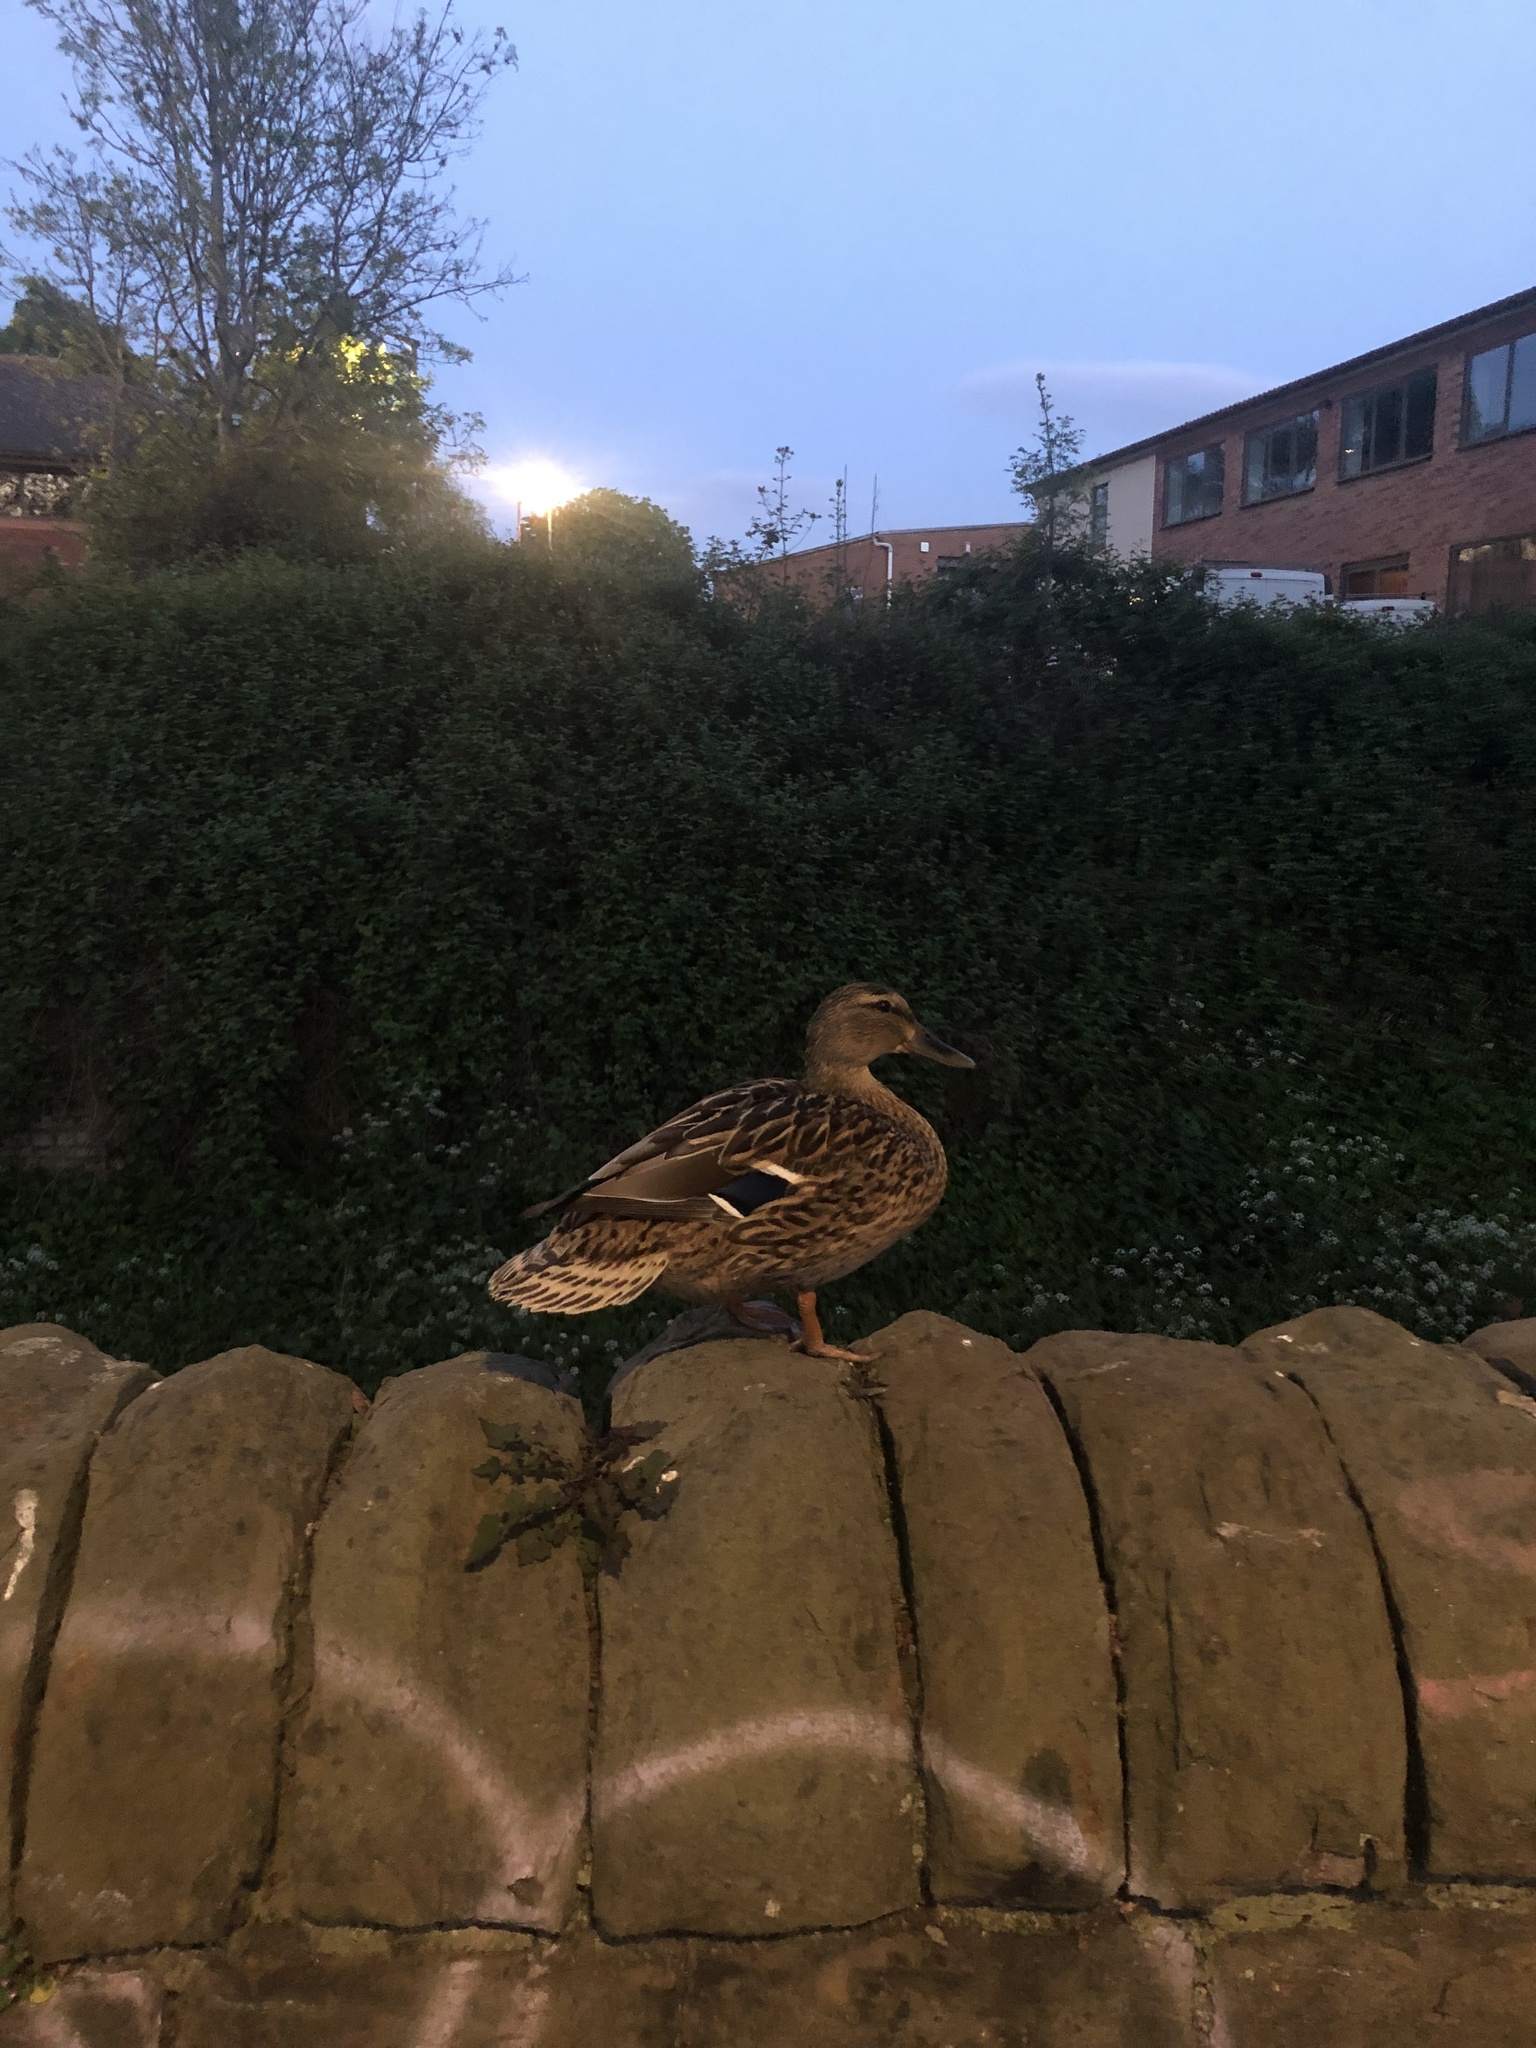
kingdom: Animalia
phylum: Chordata
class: Aves
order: Anseriformes
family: Anatidae
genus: Anas
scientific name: Anas platyrhynchos
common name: Mallard
